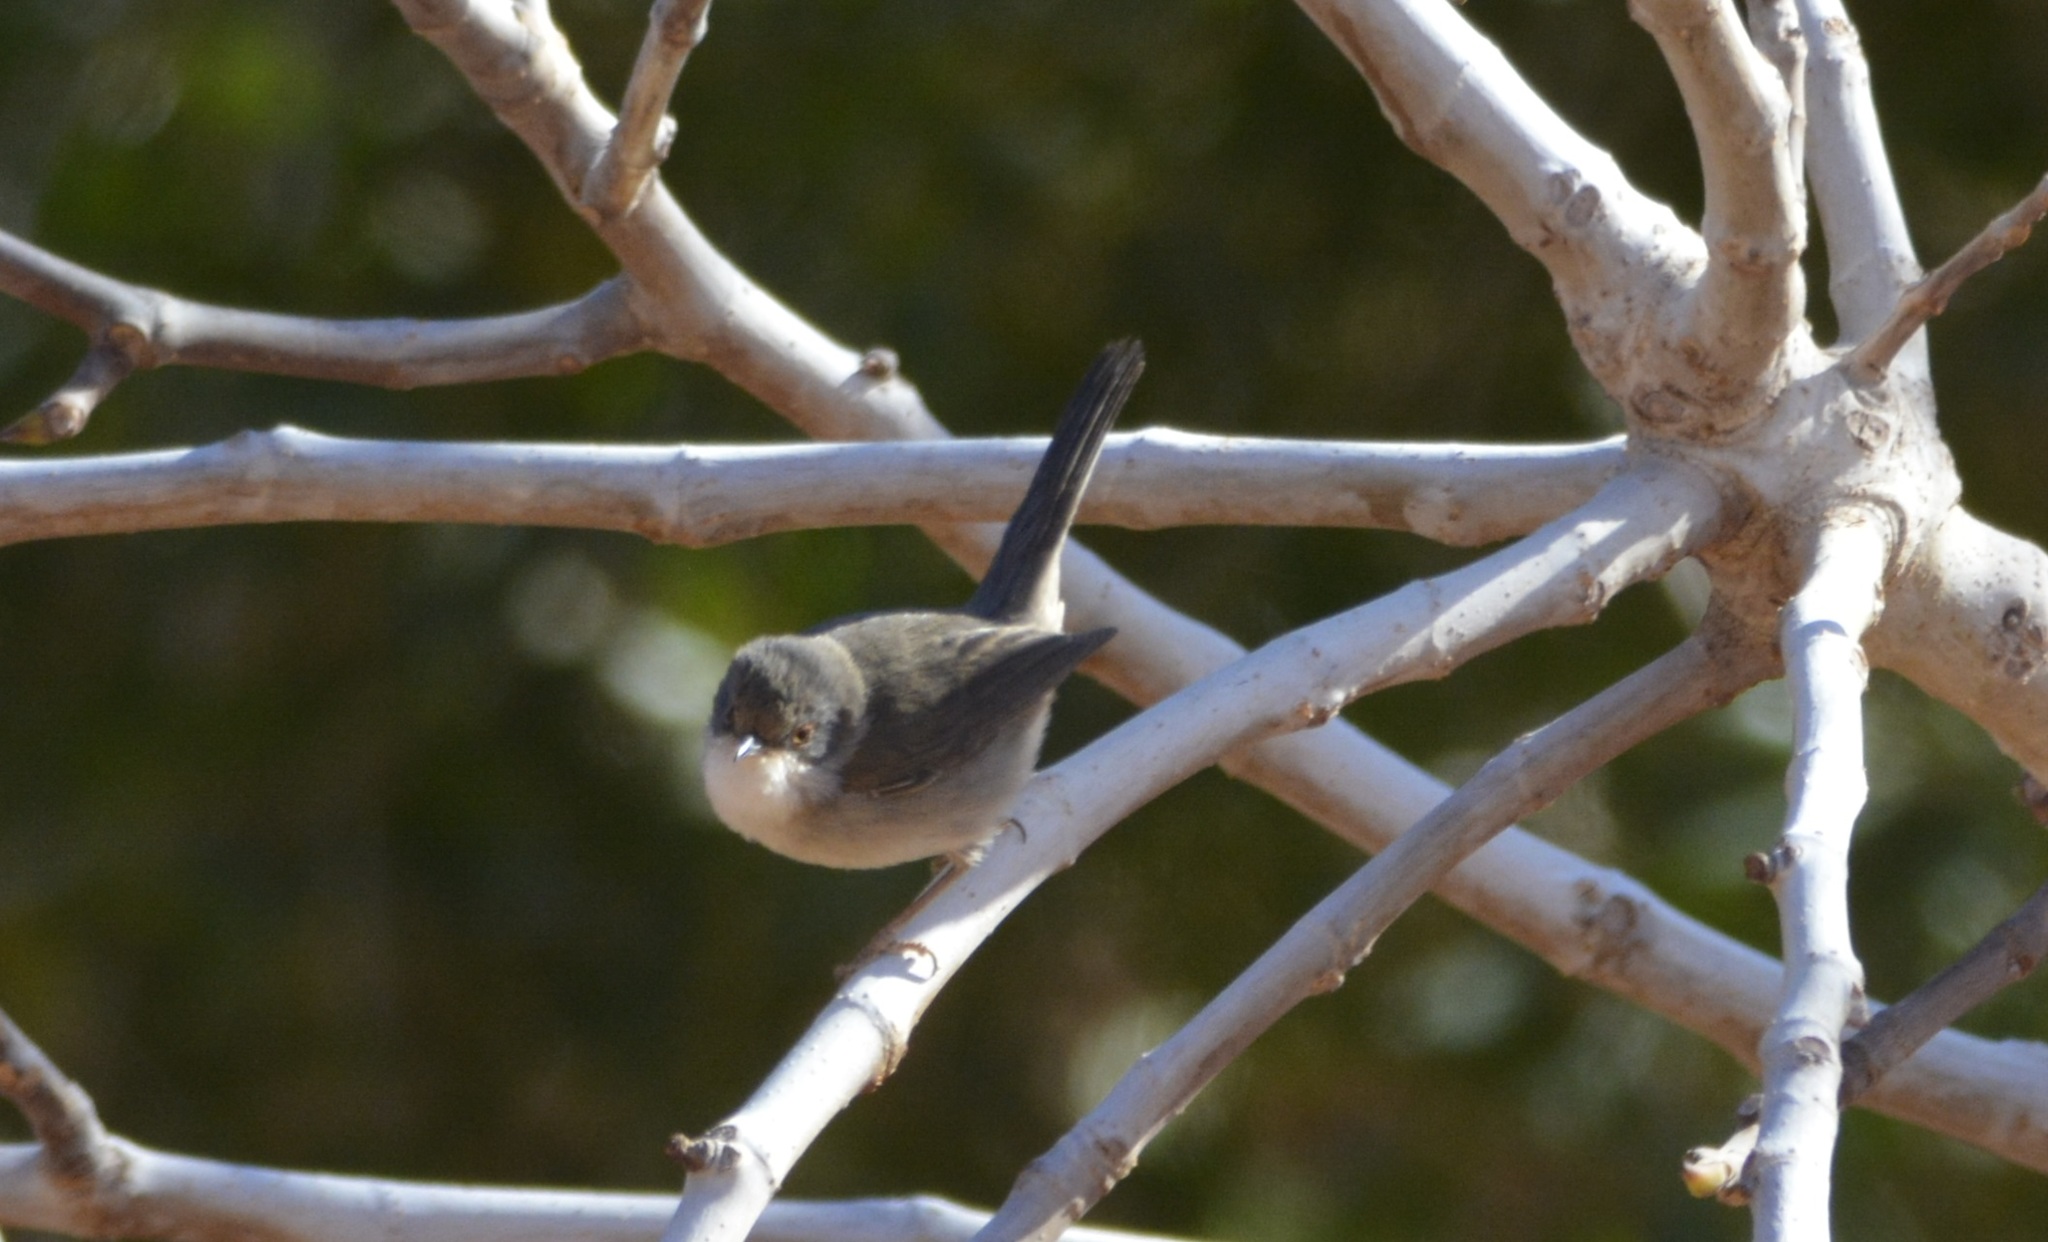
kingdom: Animalia
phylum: Chordata
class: Aves
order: Passeriformes
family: Sylviidae
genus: Curruca
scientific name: Curruca melanocephala
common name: Sardinian warbler
